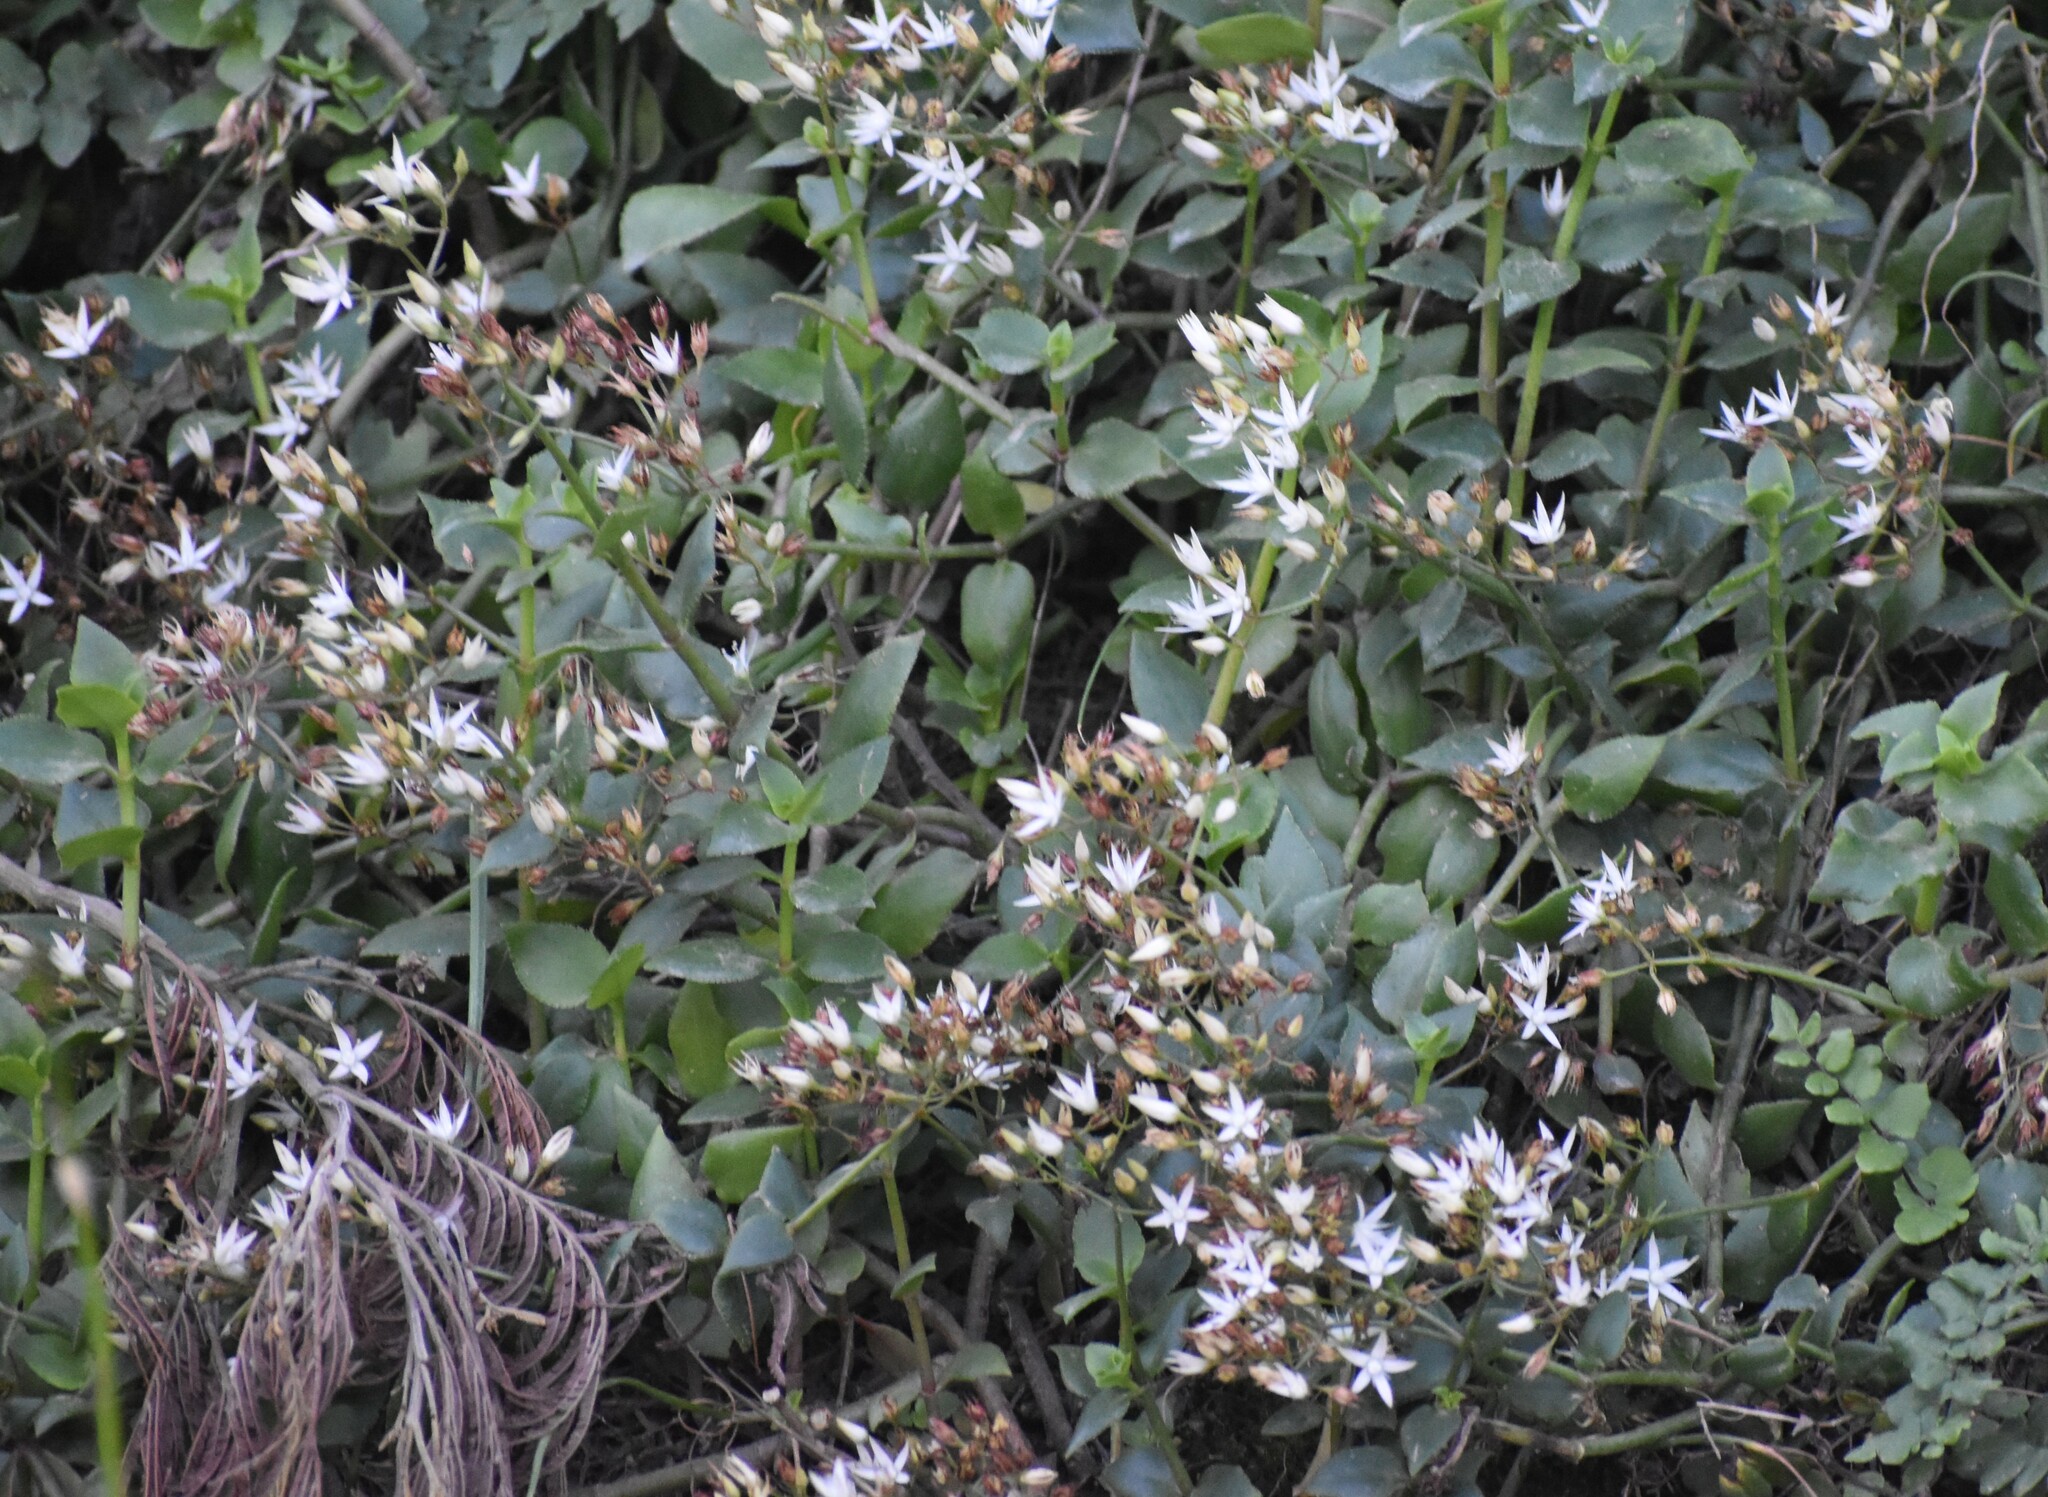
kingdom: Plantae
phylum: Tracheophyta
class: Magnoliopsida
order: Saxifragales
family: Crassulaceae
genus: Crassula
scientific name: Crassula sarmentosa
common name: Jade-tree
